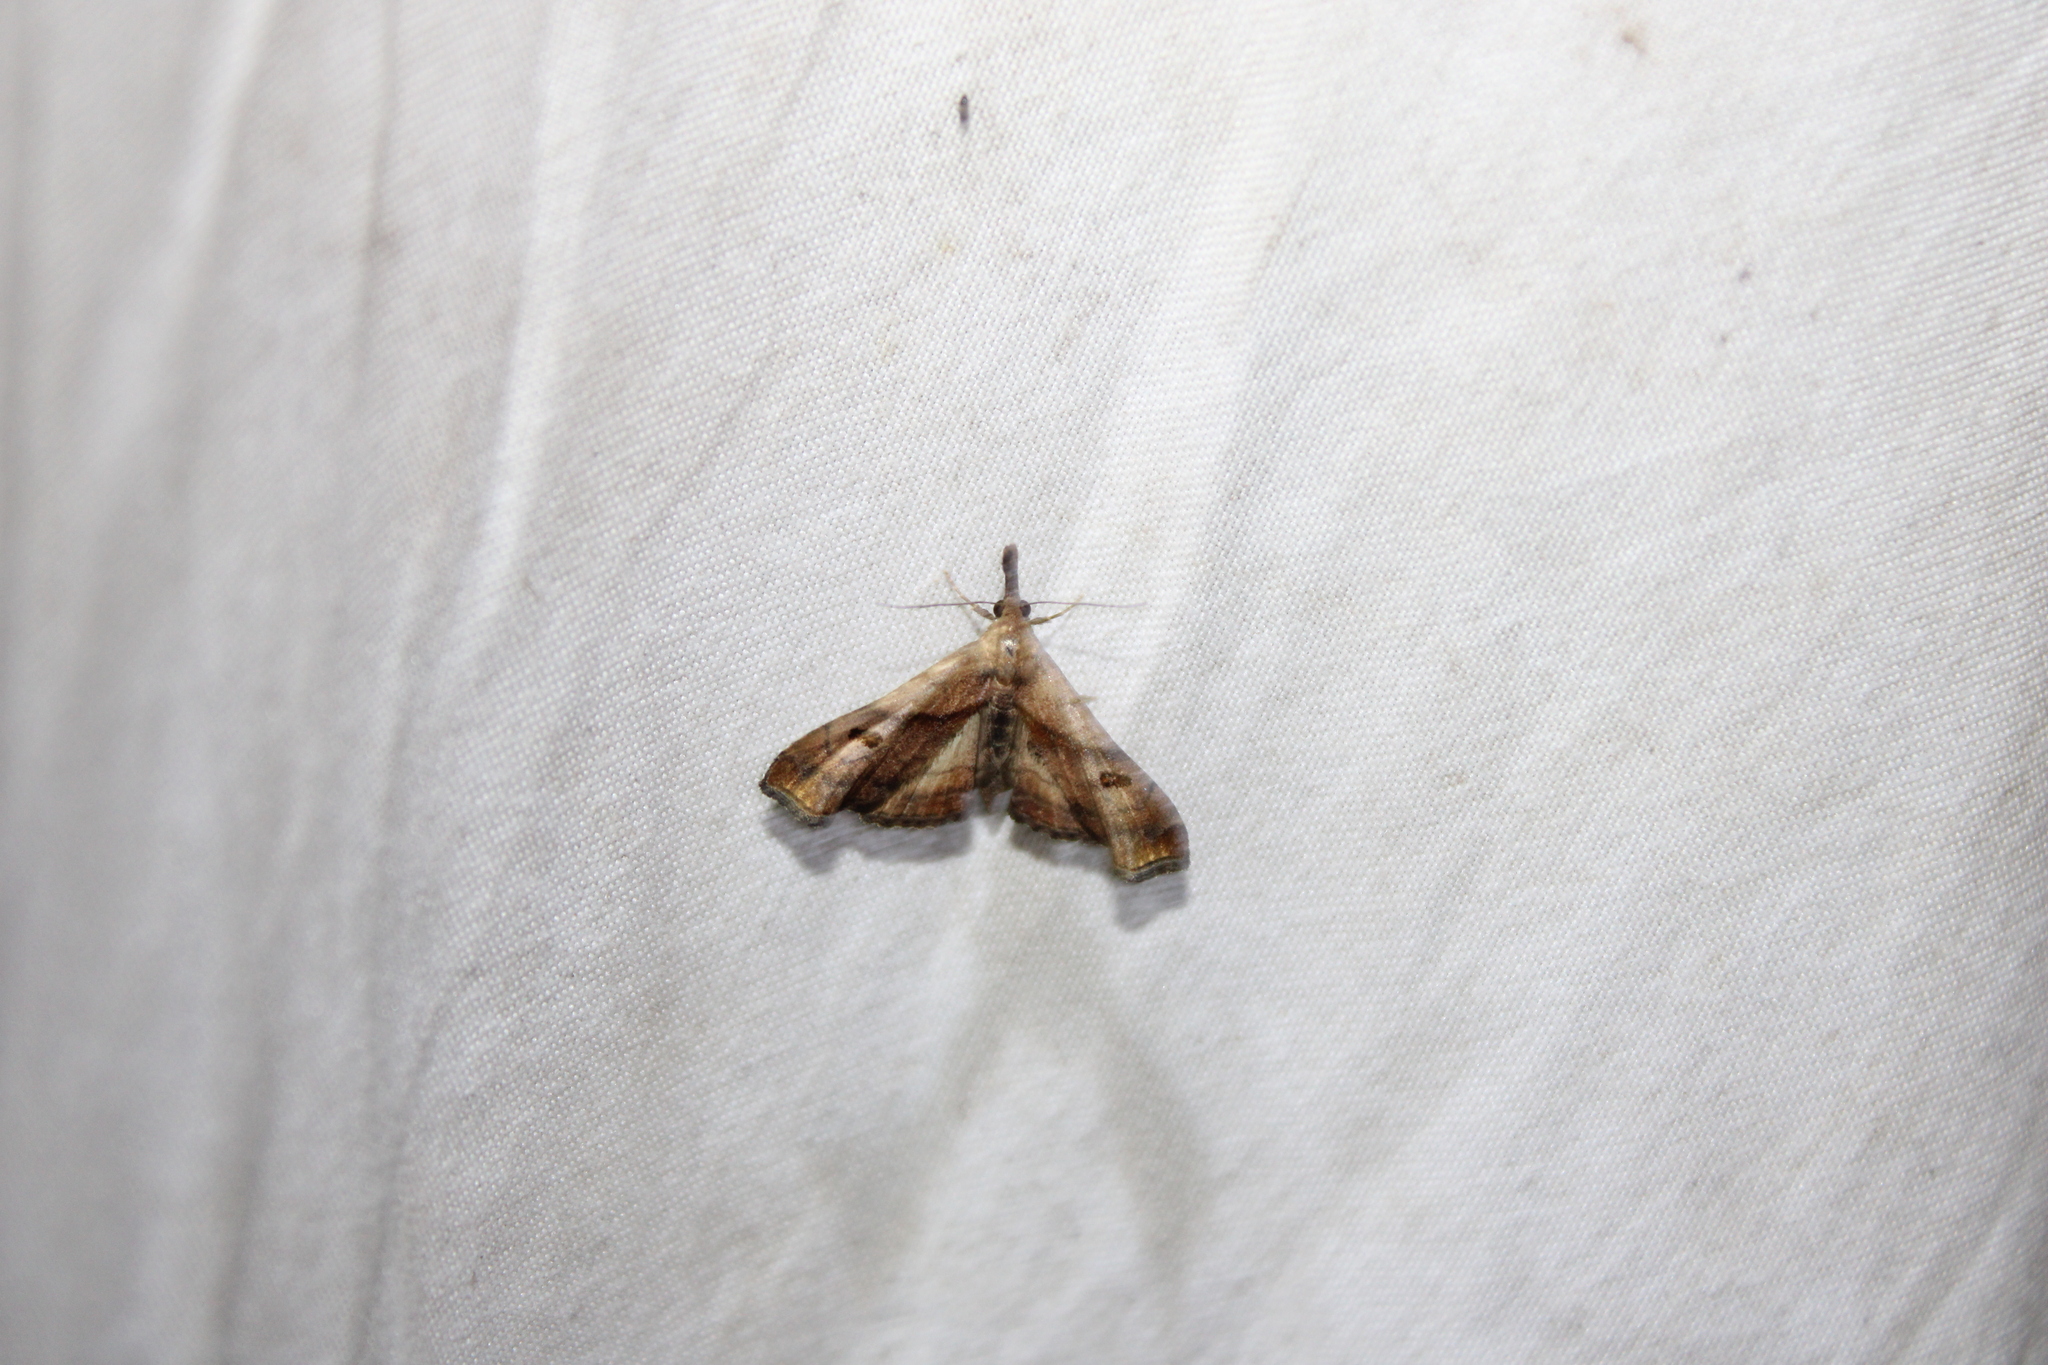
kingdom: Animalia
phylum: Arthropoda
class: Insecta
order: Lepidoptera
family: Erebidae
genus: Palthis
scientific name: Palthis angulalis
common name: Dark-spotted palthis moth
